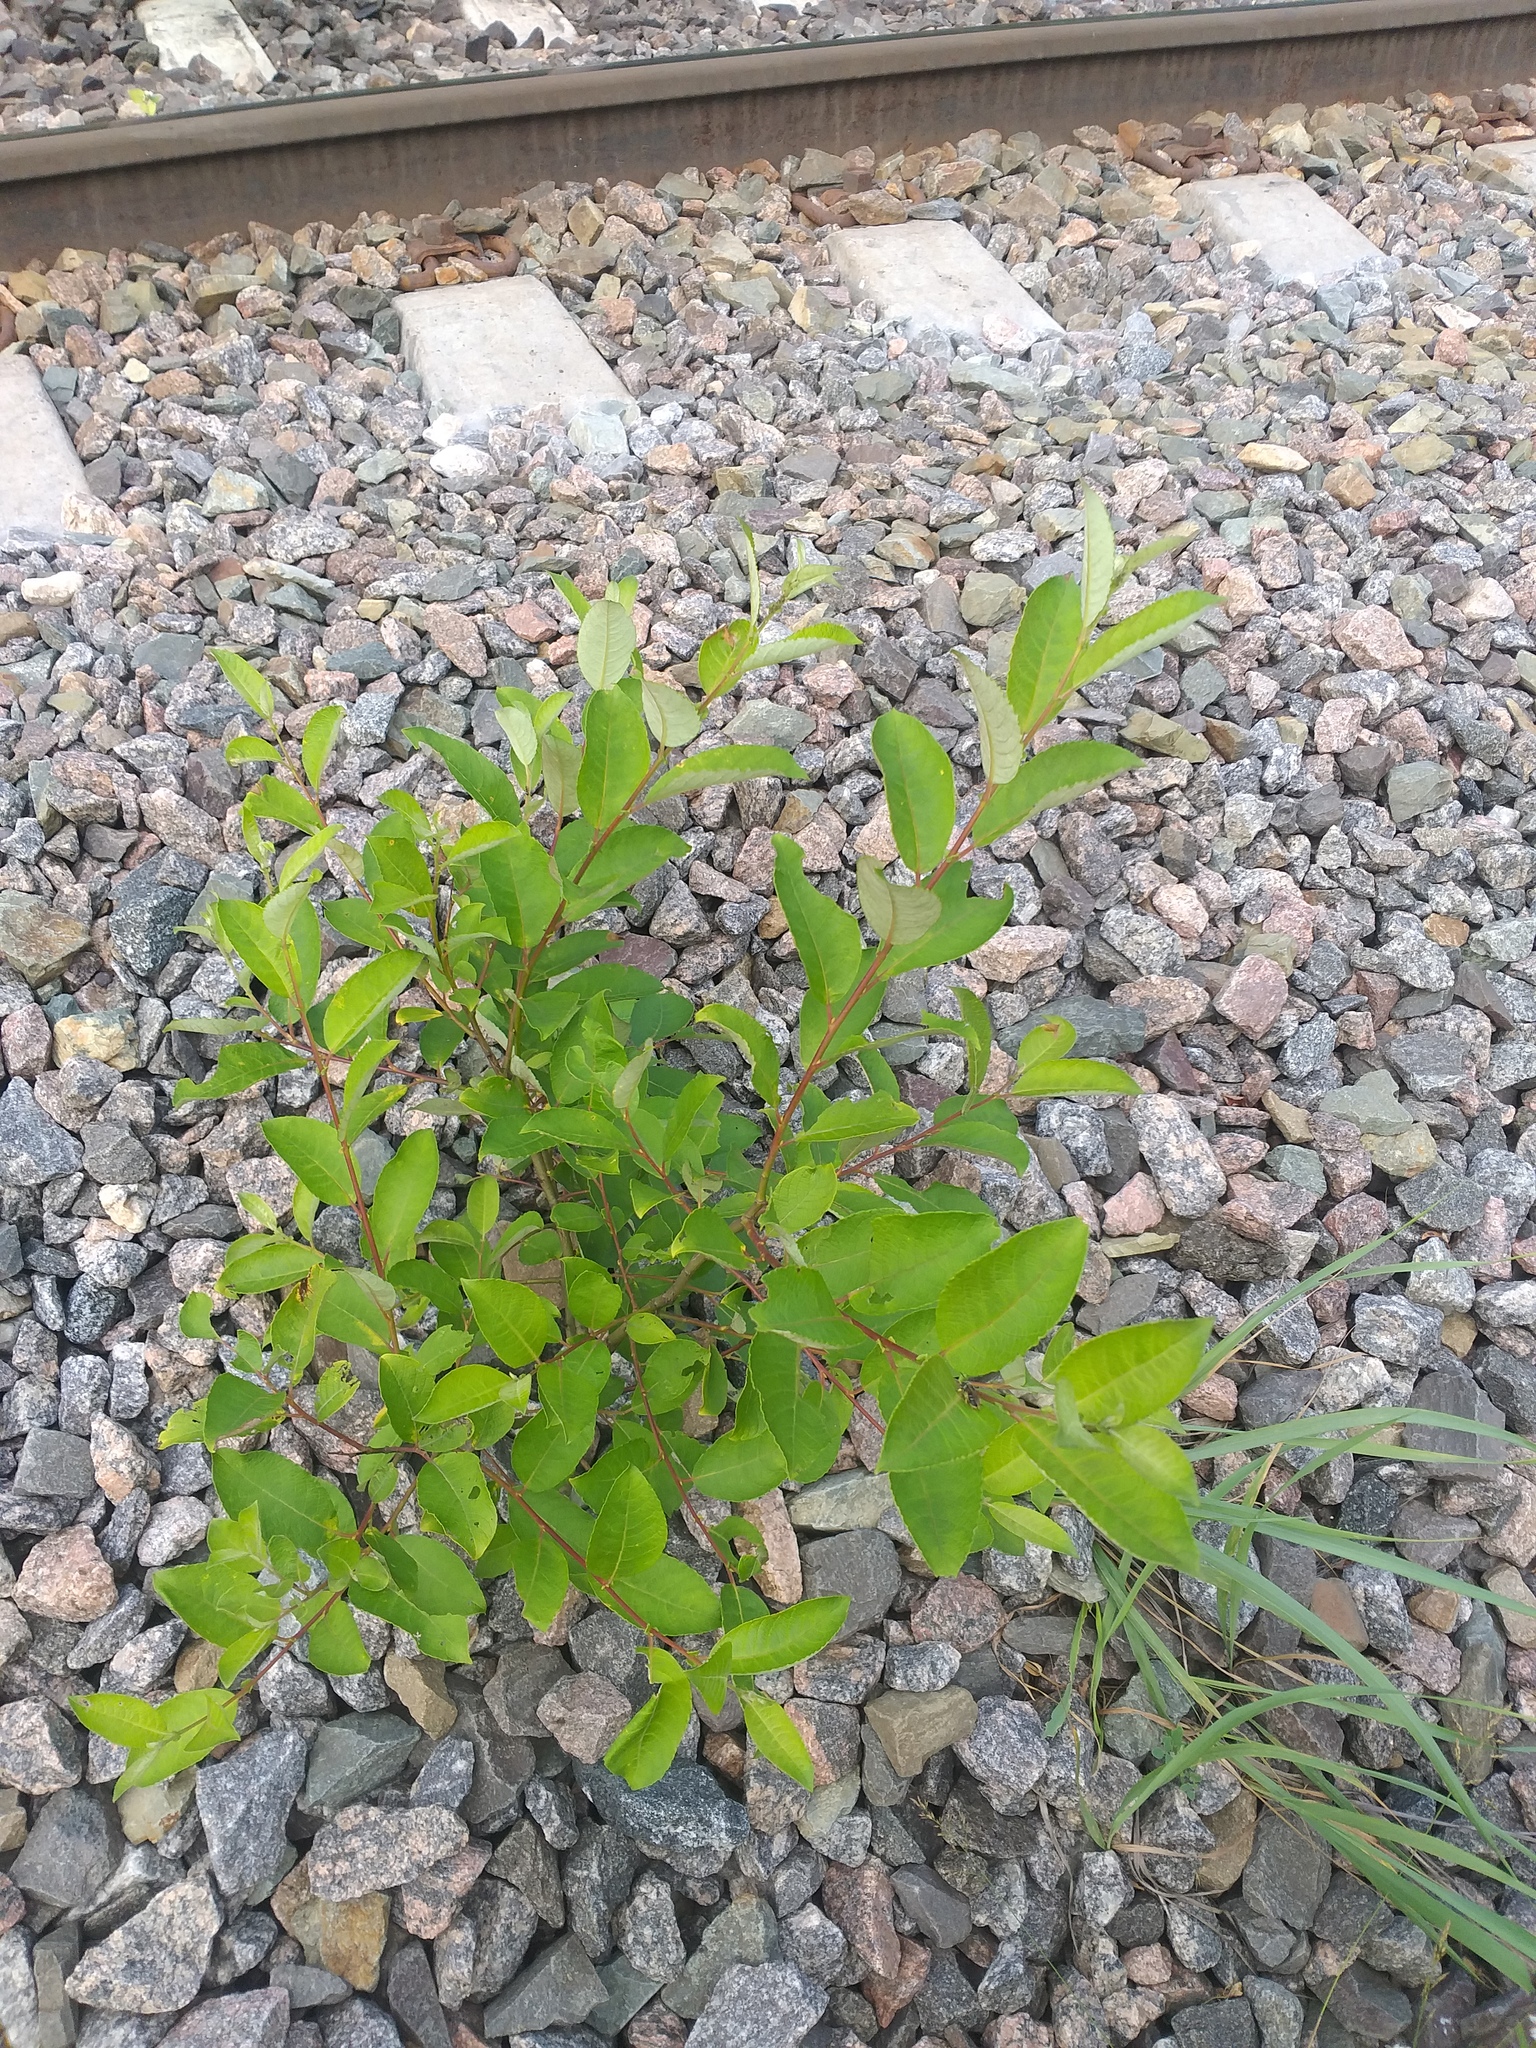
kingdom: Plantae
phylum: Tracheophyta
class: Magnoliopsida
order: Malpighiales
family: Salicaceae
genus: Salix
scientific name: Salix caprea
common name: Goat willow
